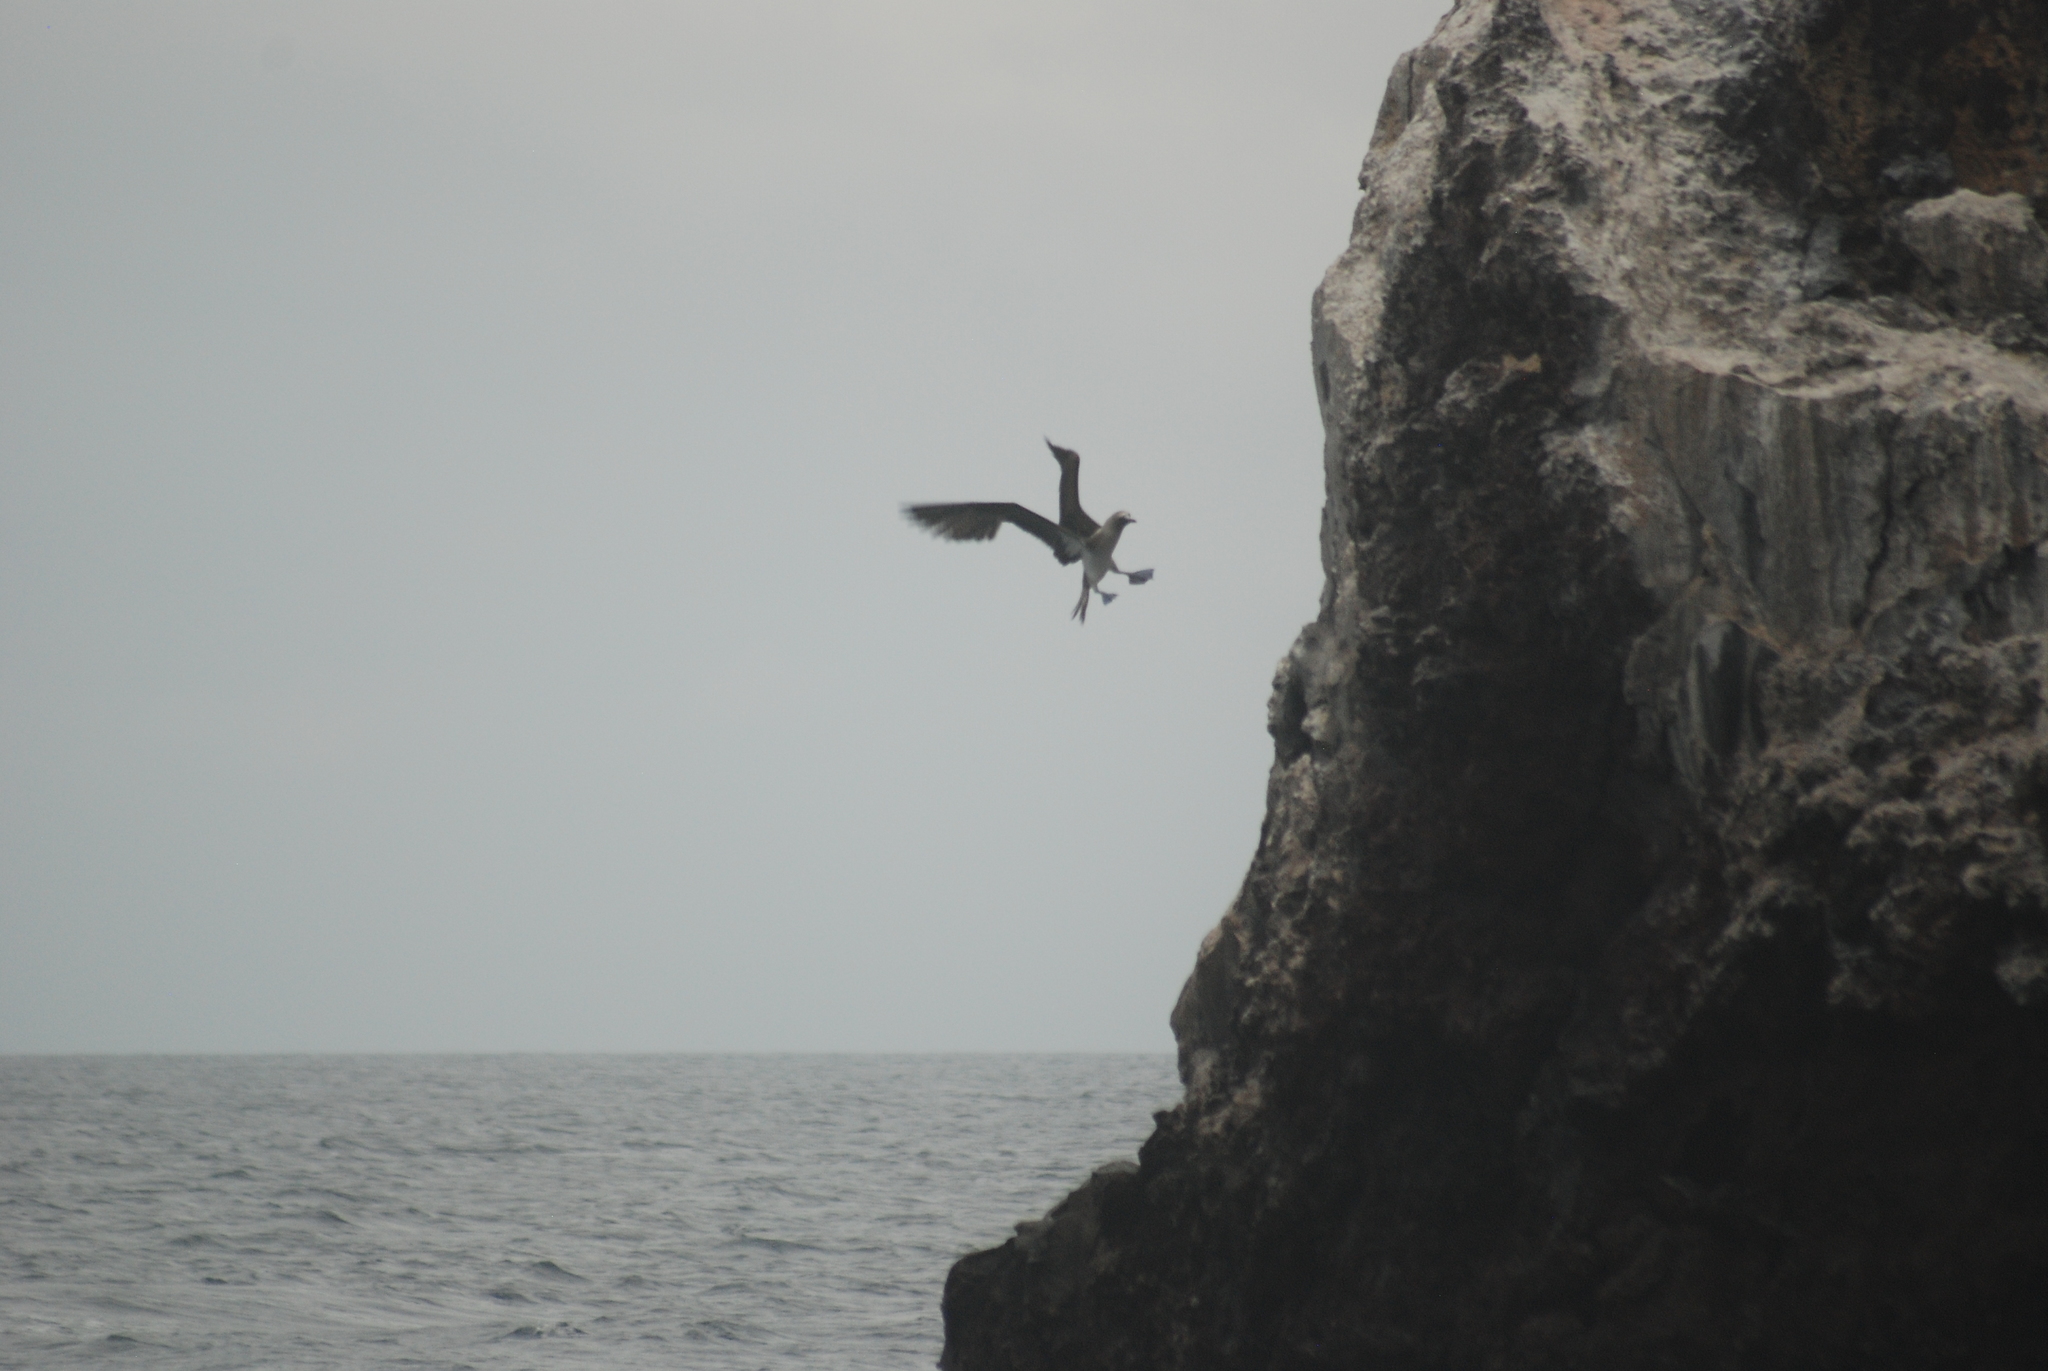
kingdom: Animalia
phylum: Chordata
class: Aves
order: Suliformes
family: Sulidae
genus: Sula
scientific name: Sula nebouxii
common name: Blue-footed booby
